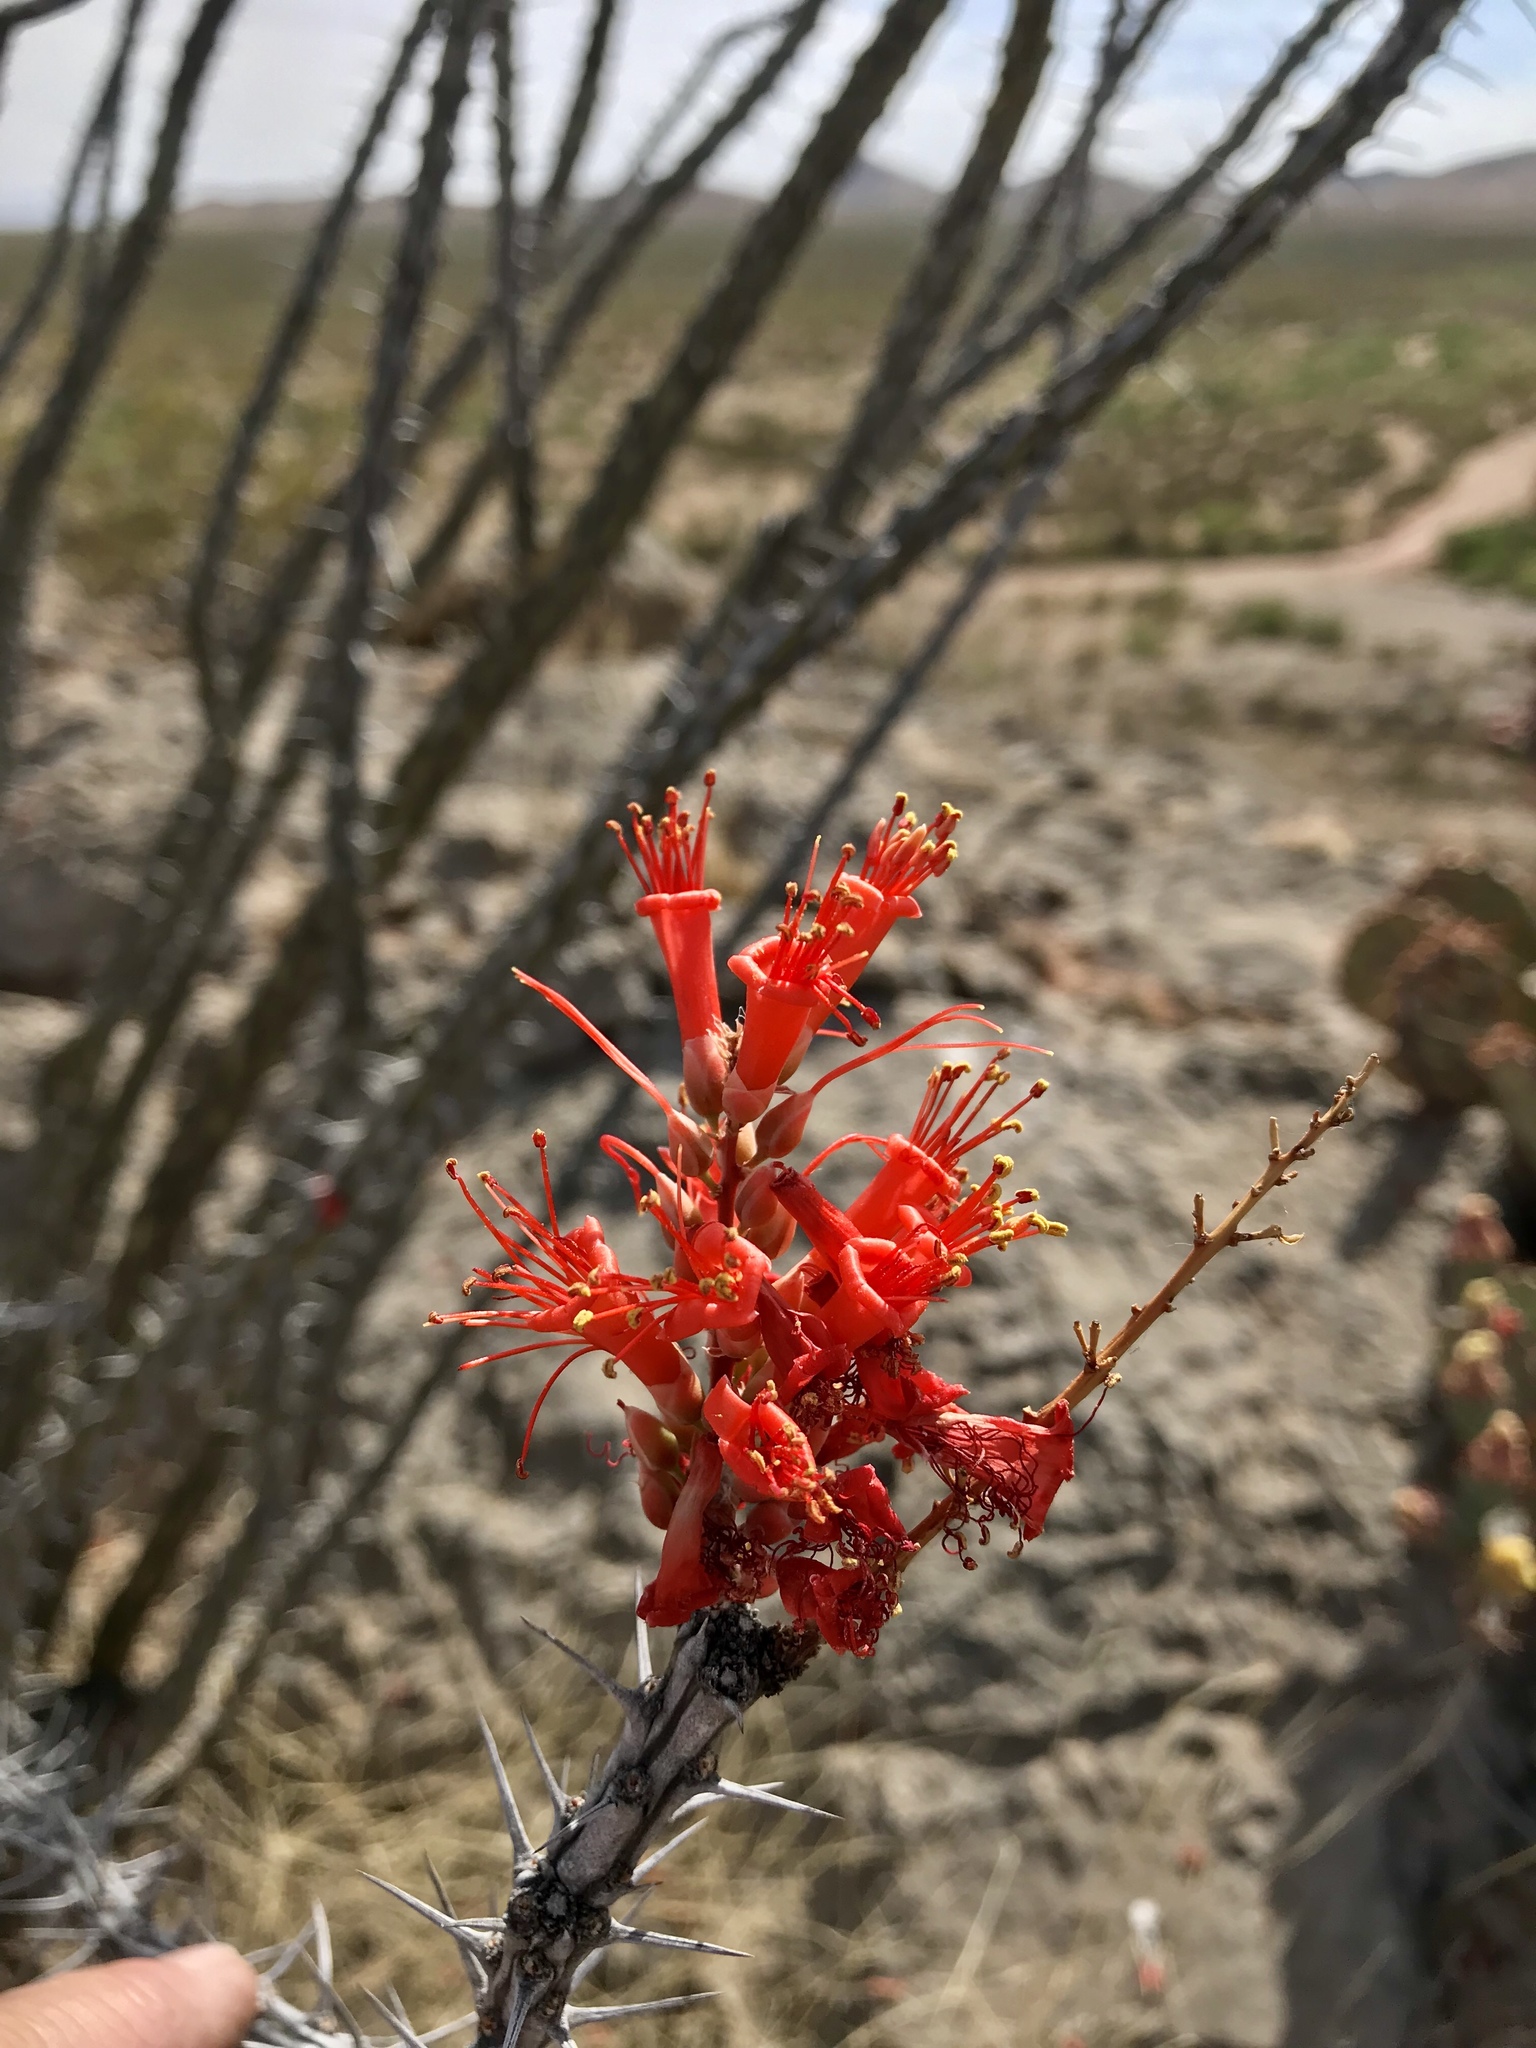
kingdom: Plantae
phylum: Tracheophyta
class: Magnoliopsida
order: Ericales
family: Fouquieriaceae
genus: Fouquieria
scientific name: Fouquieria splendens
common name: Vine-cactus
